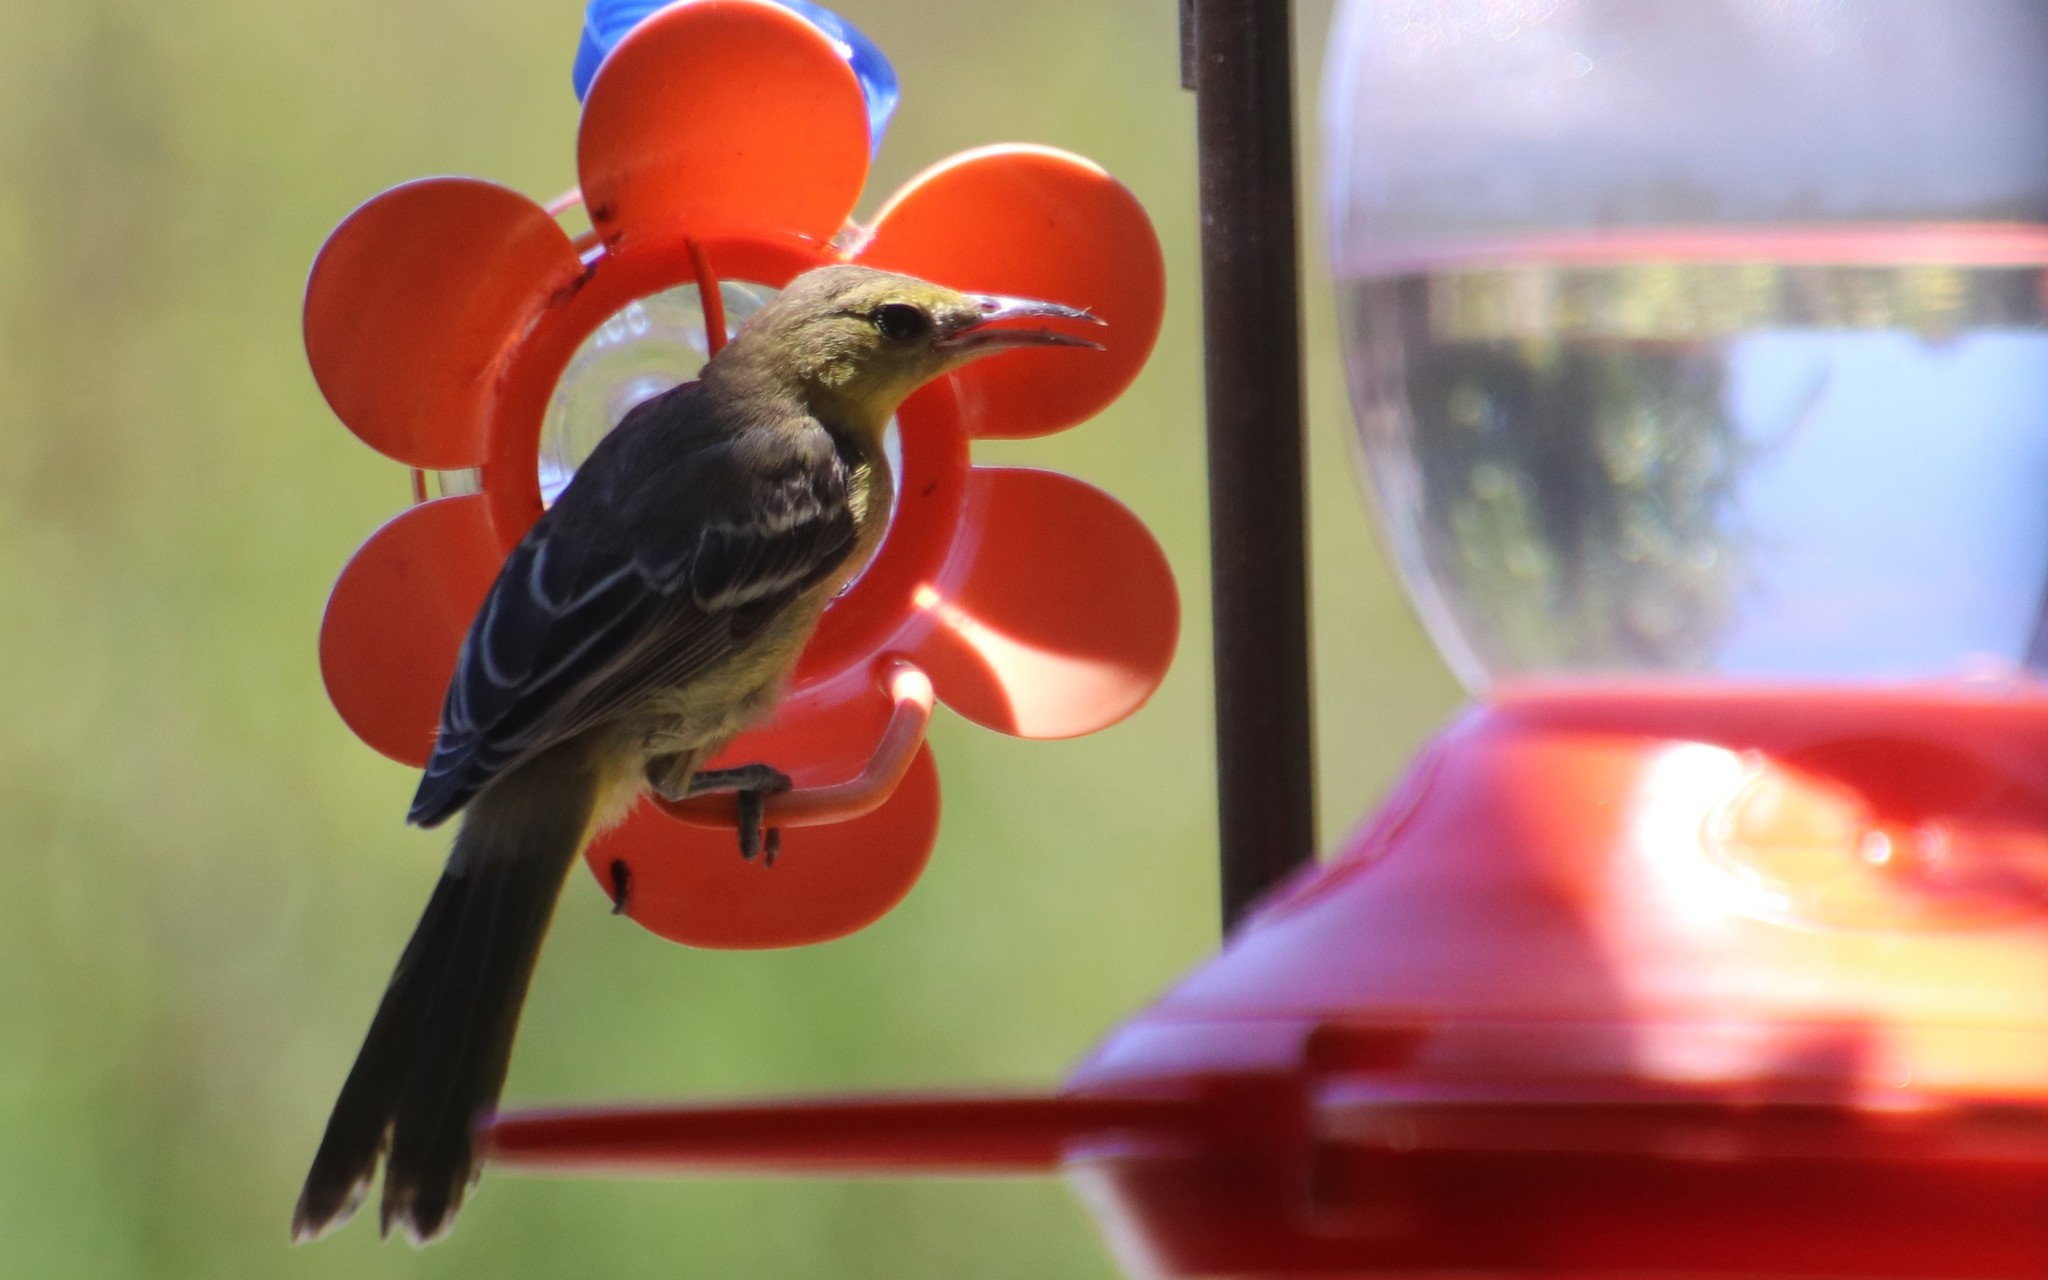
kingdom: Animalia
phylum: Chordata
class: Aves
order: Passeriformes
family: Icteridae
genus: Icterus
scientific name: Icterus cucullatus
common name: Hooded oriole
